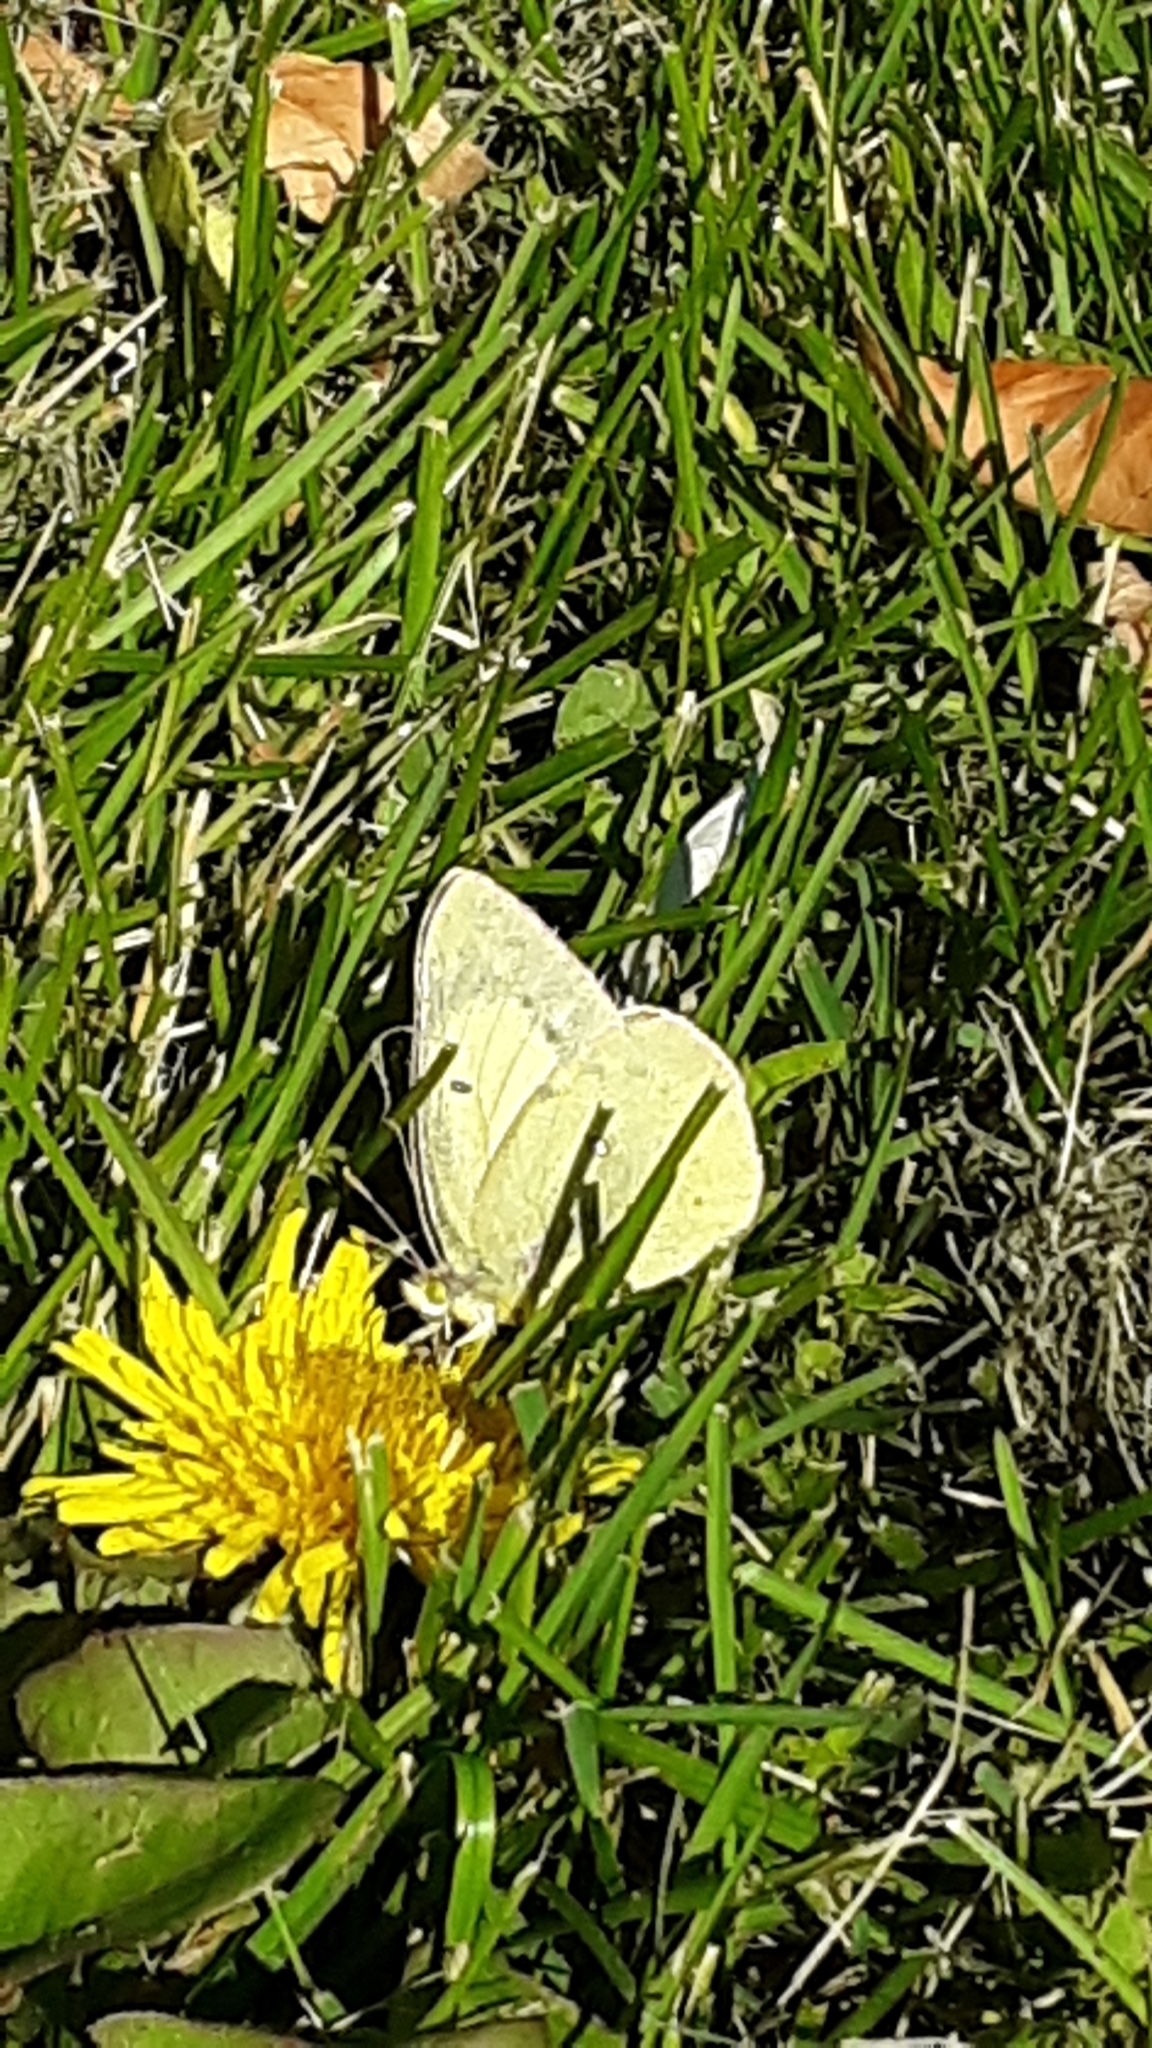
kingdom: Animalia
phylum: Arthropoda
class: Insecta
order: Lepidoptera
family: Pieridae
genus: Colias
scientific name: Colias philodice
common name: Clouded sulphur
